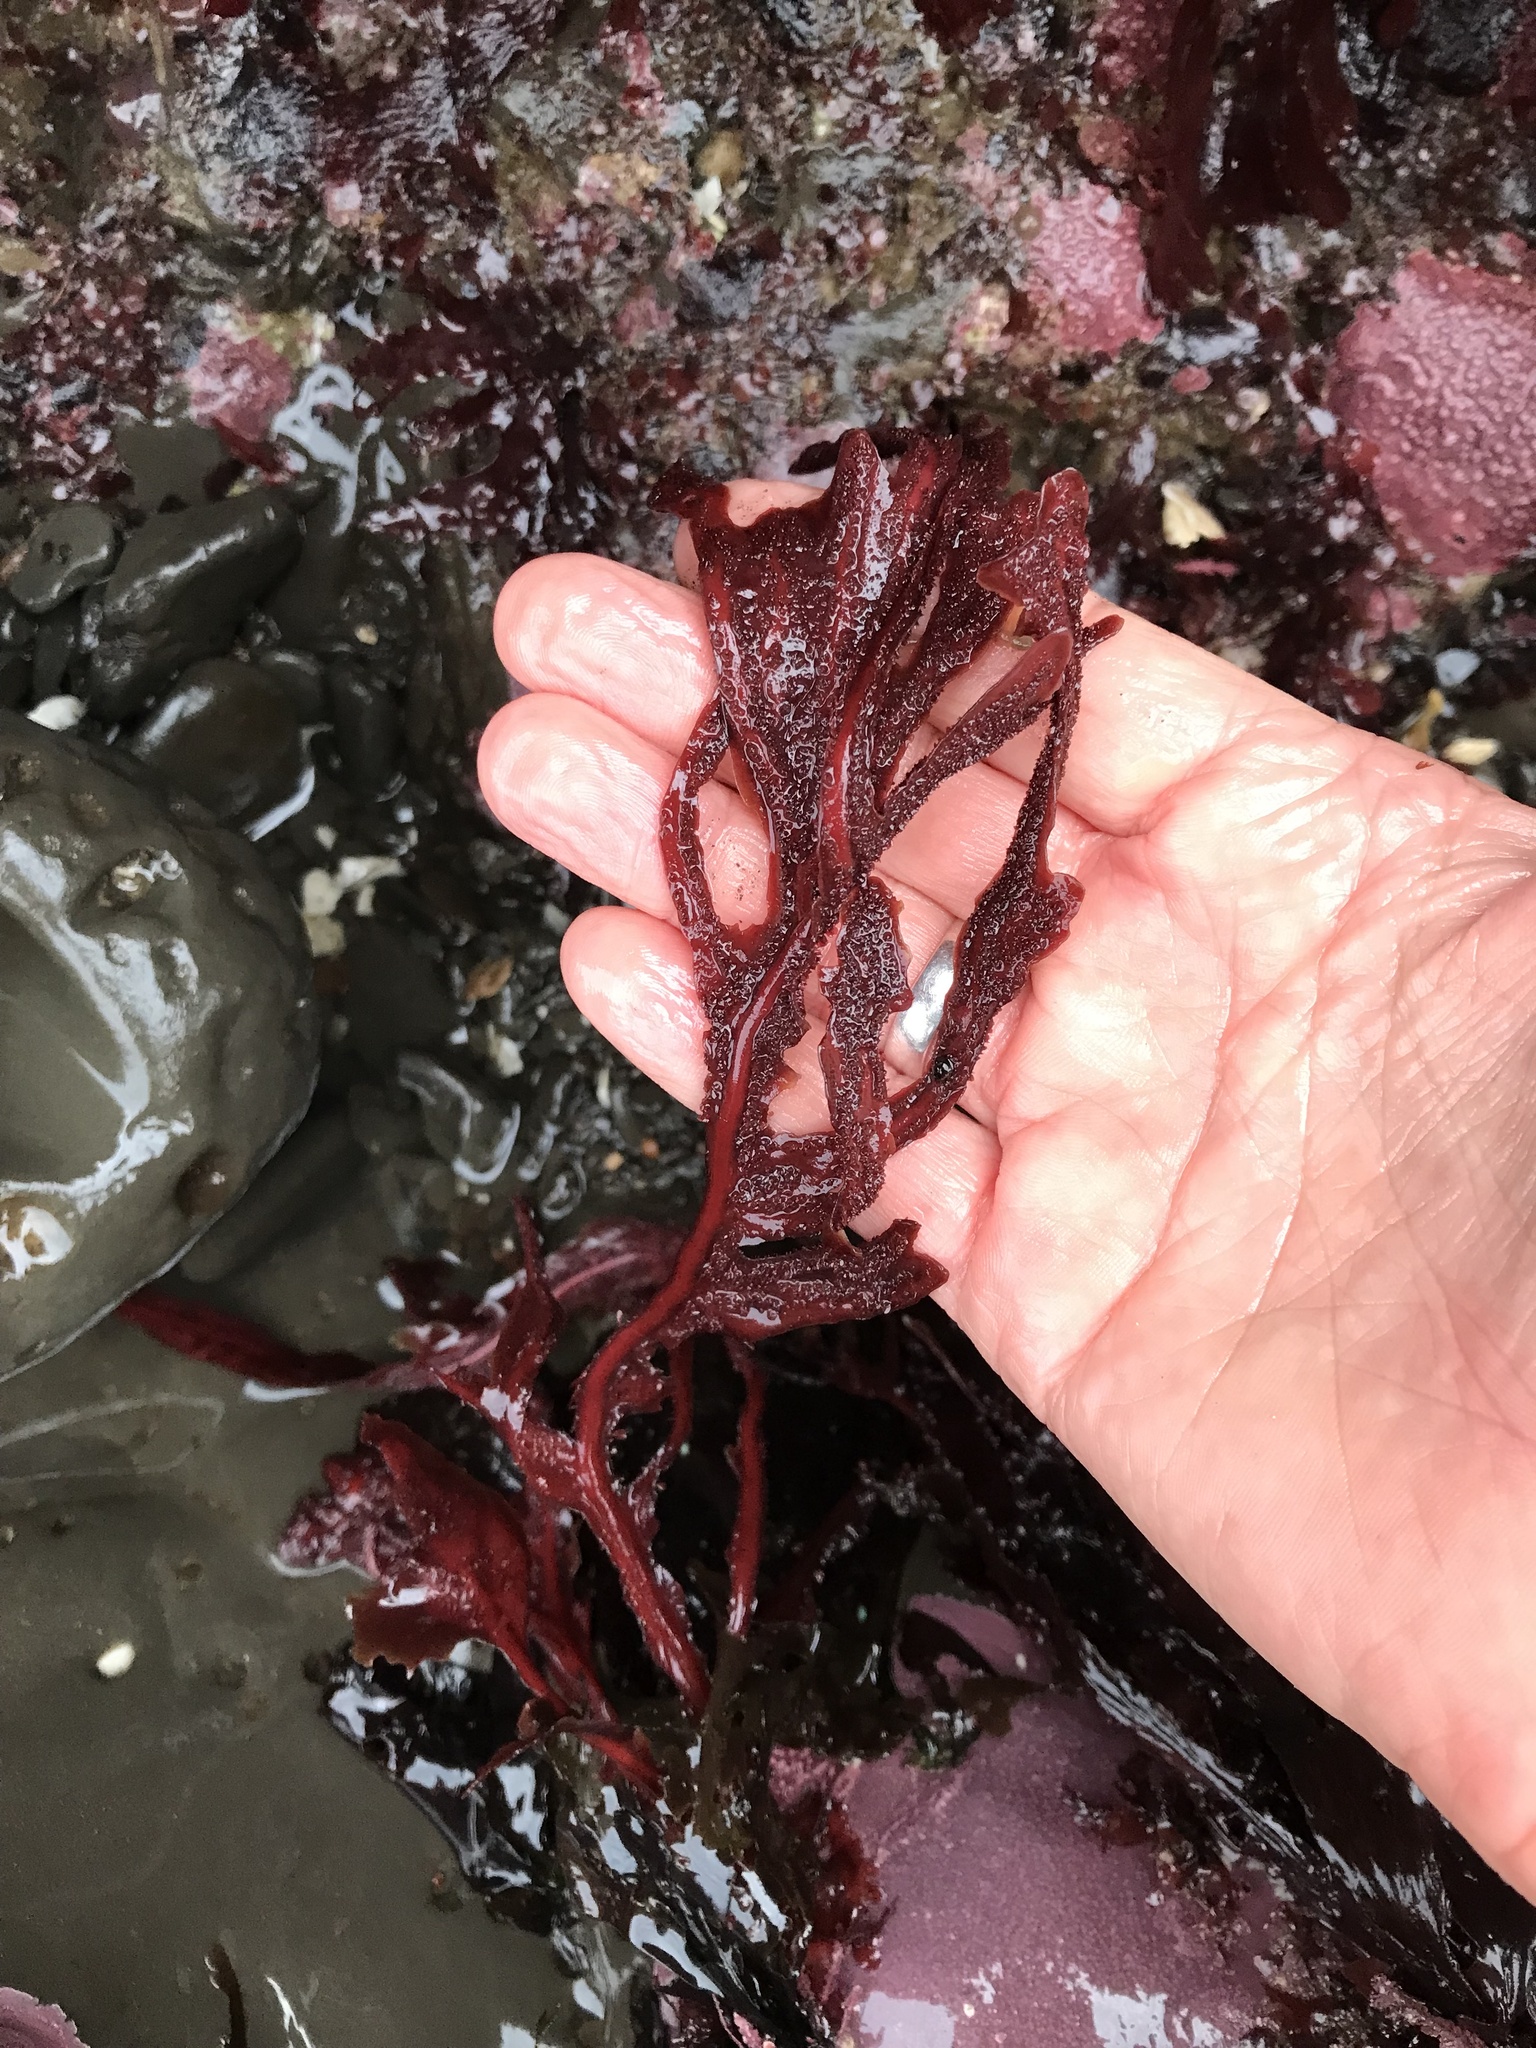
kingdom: Plantae
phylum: Rhodophyta
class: Florideophyceae
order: Gigartinales
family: Kallymeniaceae
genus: Erythrophyllum
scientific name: Erythrophyllum delesserioides
